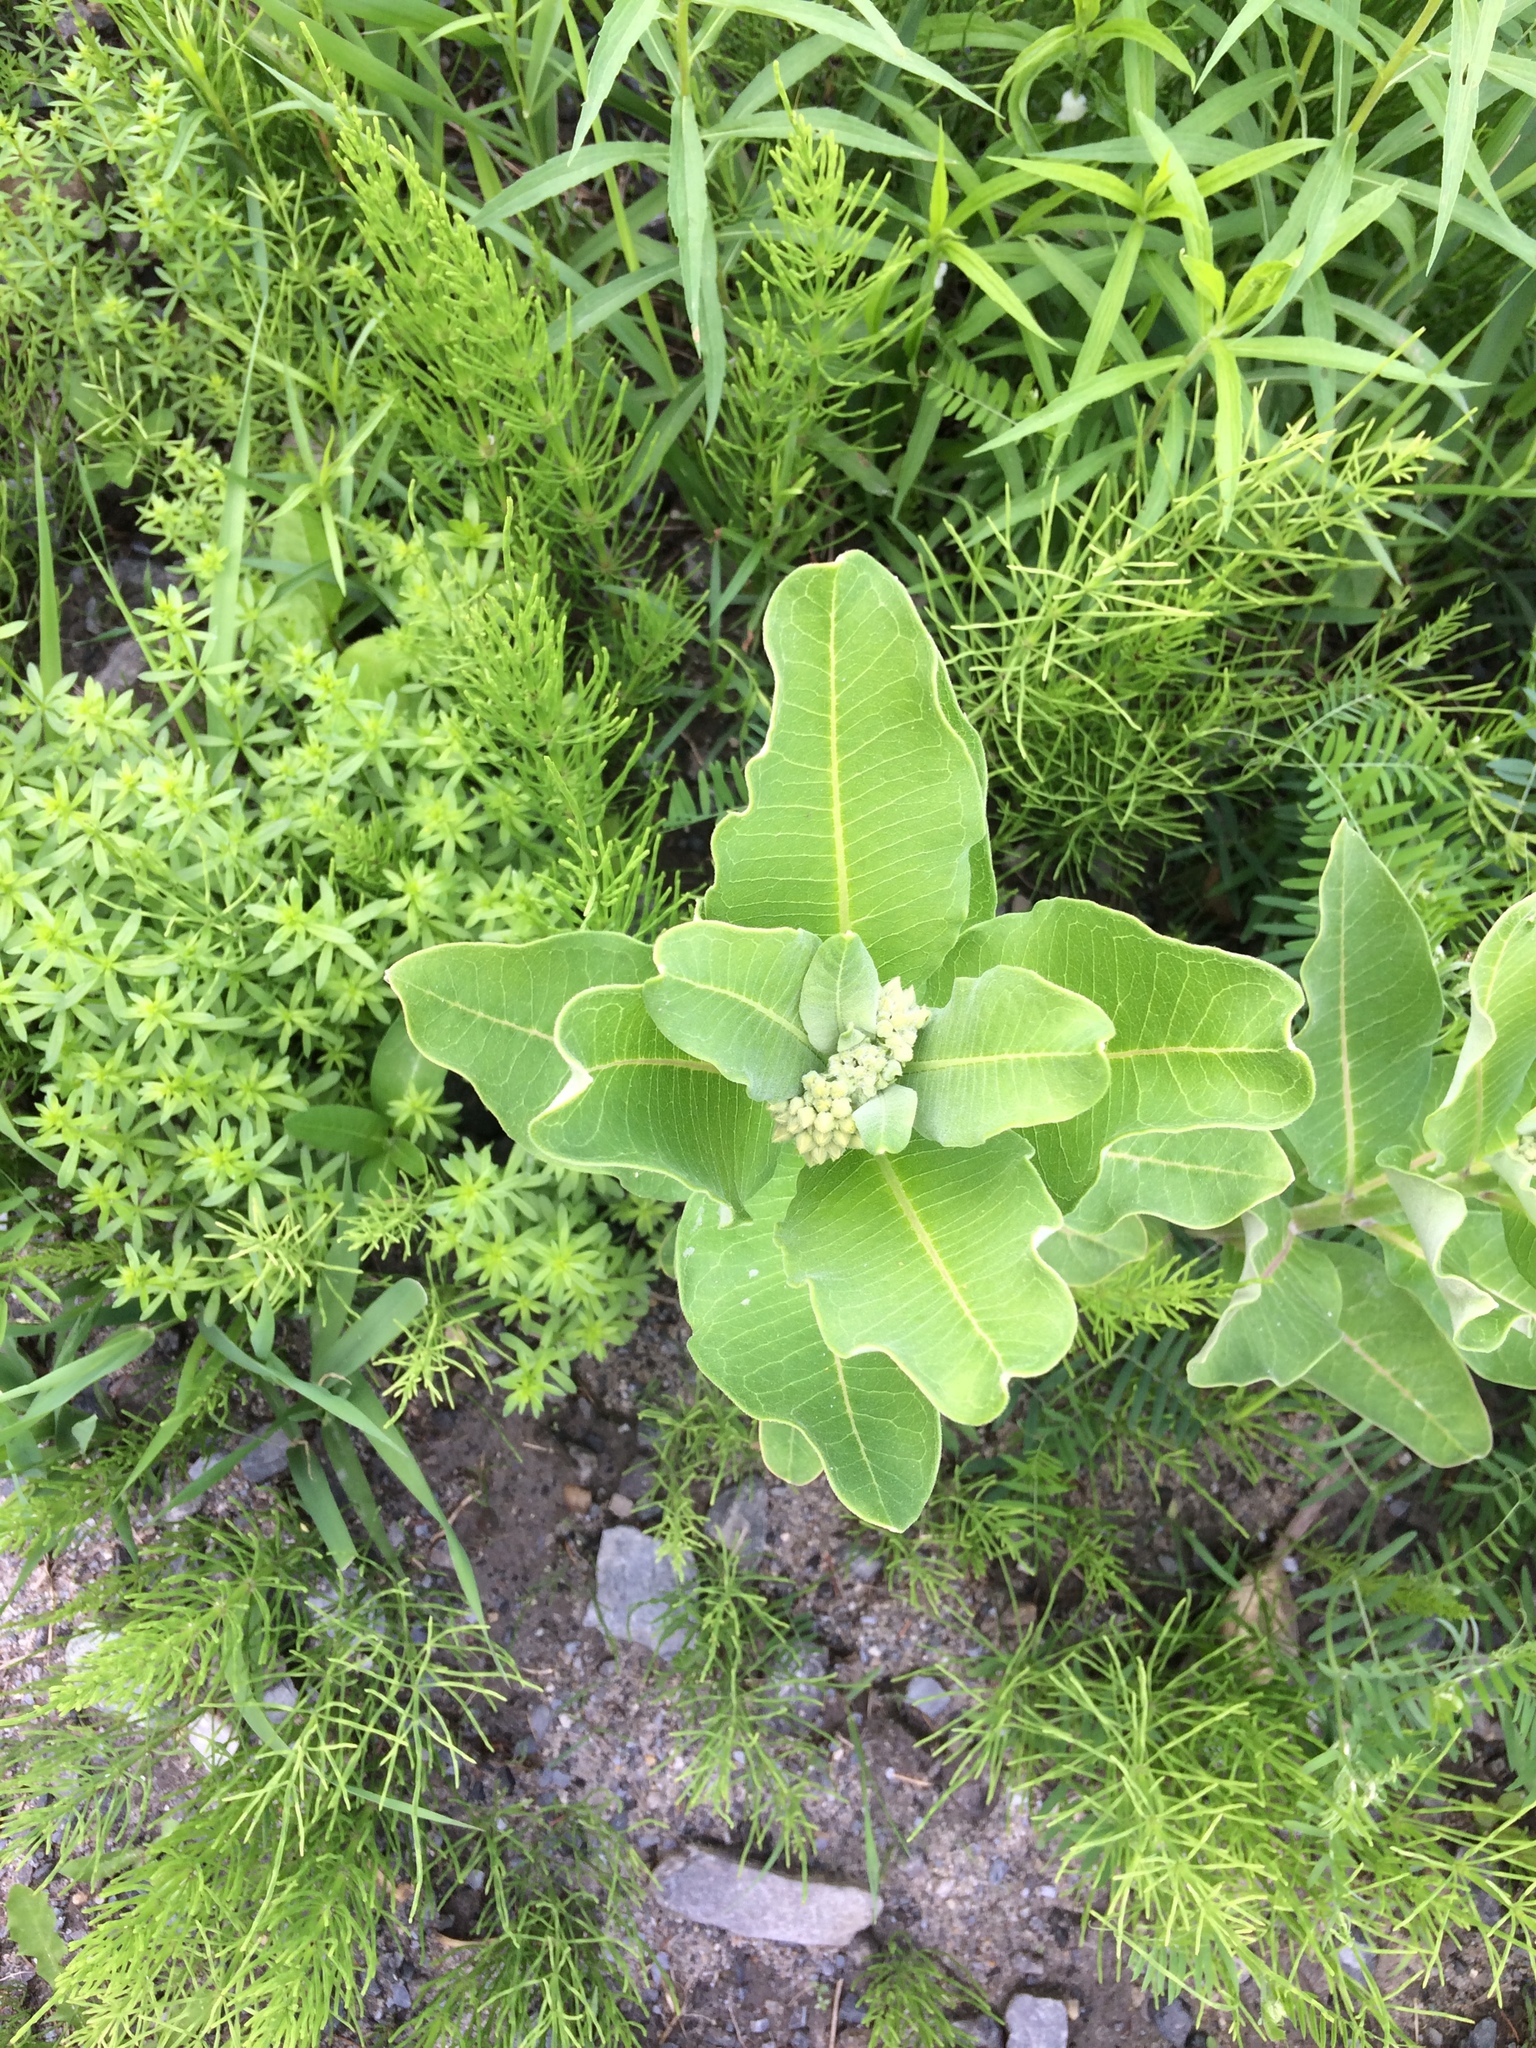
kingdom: Plantae
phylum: Tracheophyta
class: Magnoliopsida
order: Gentianales
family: Apocynaceae
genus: Asclepias
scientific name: Asclepias syriaca
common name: Common milkweed
